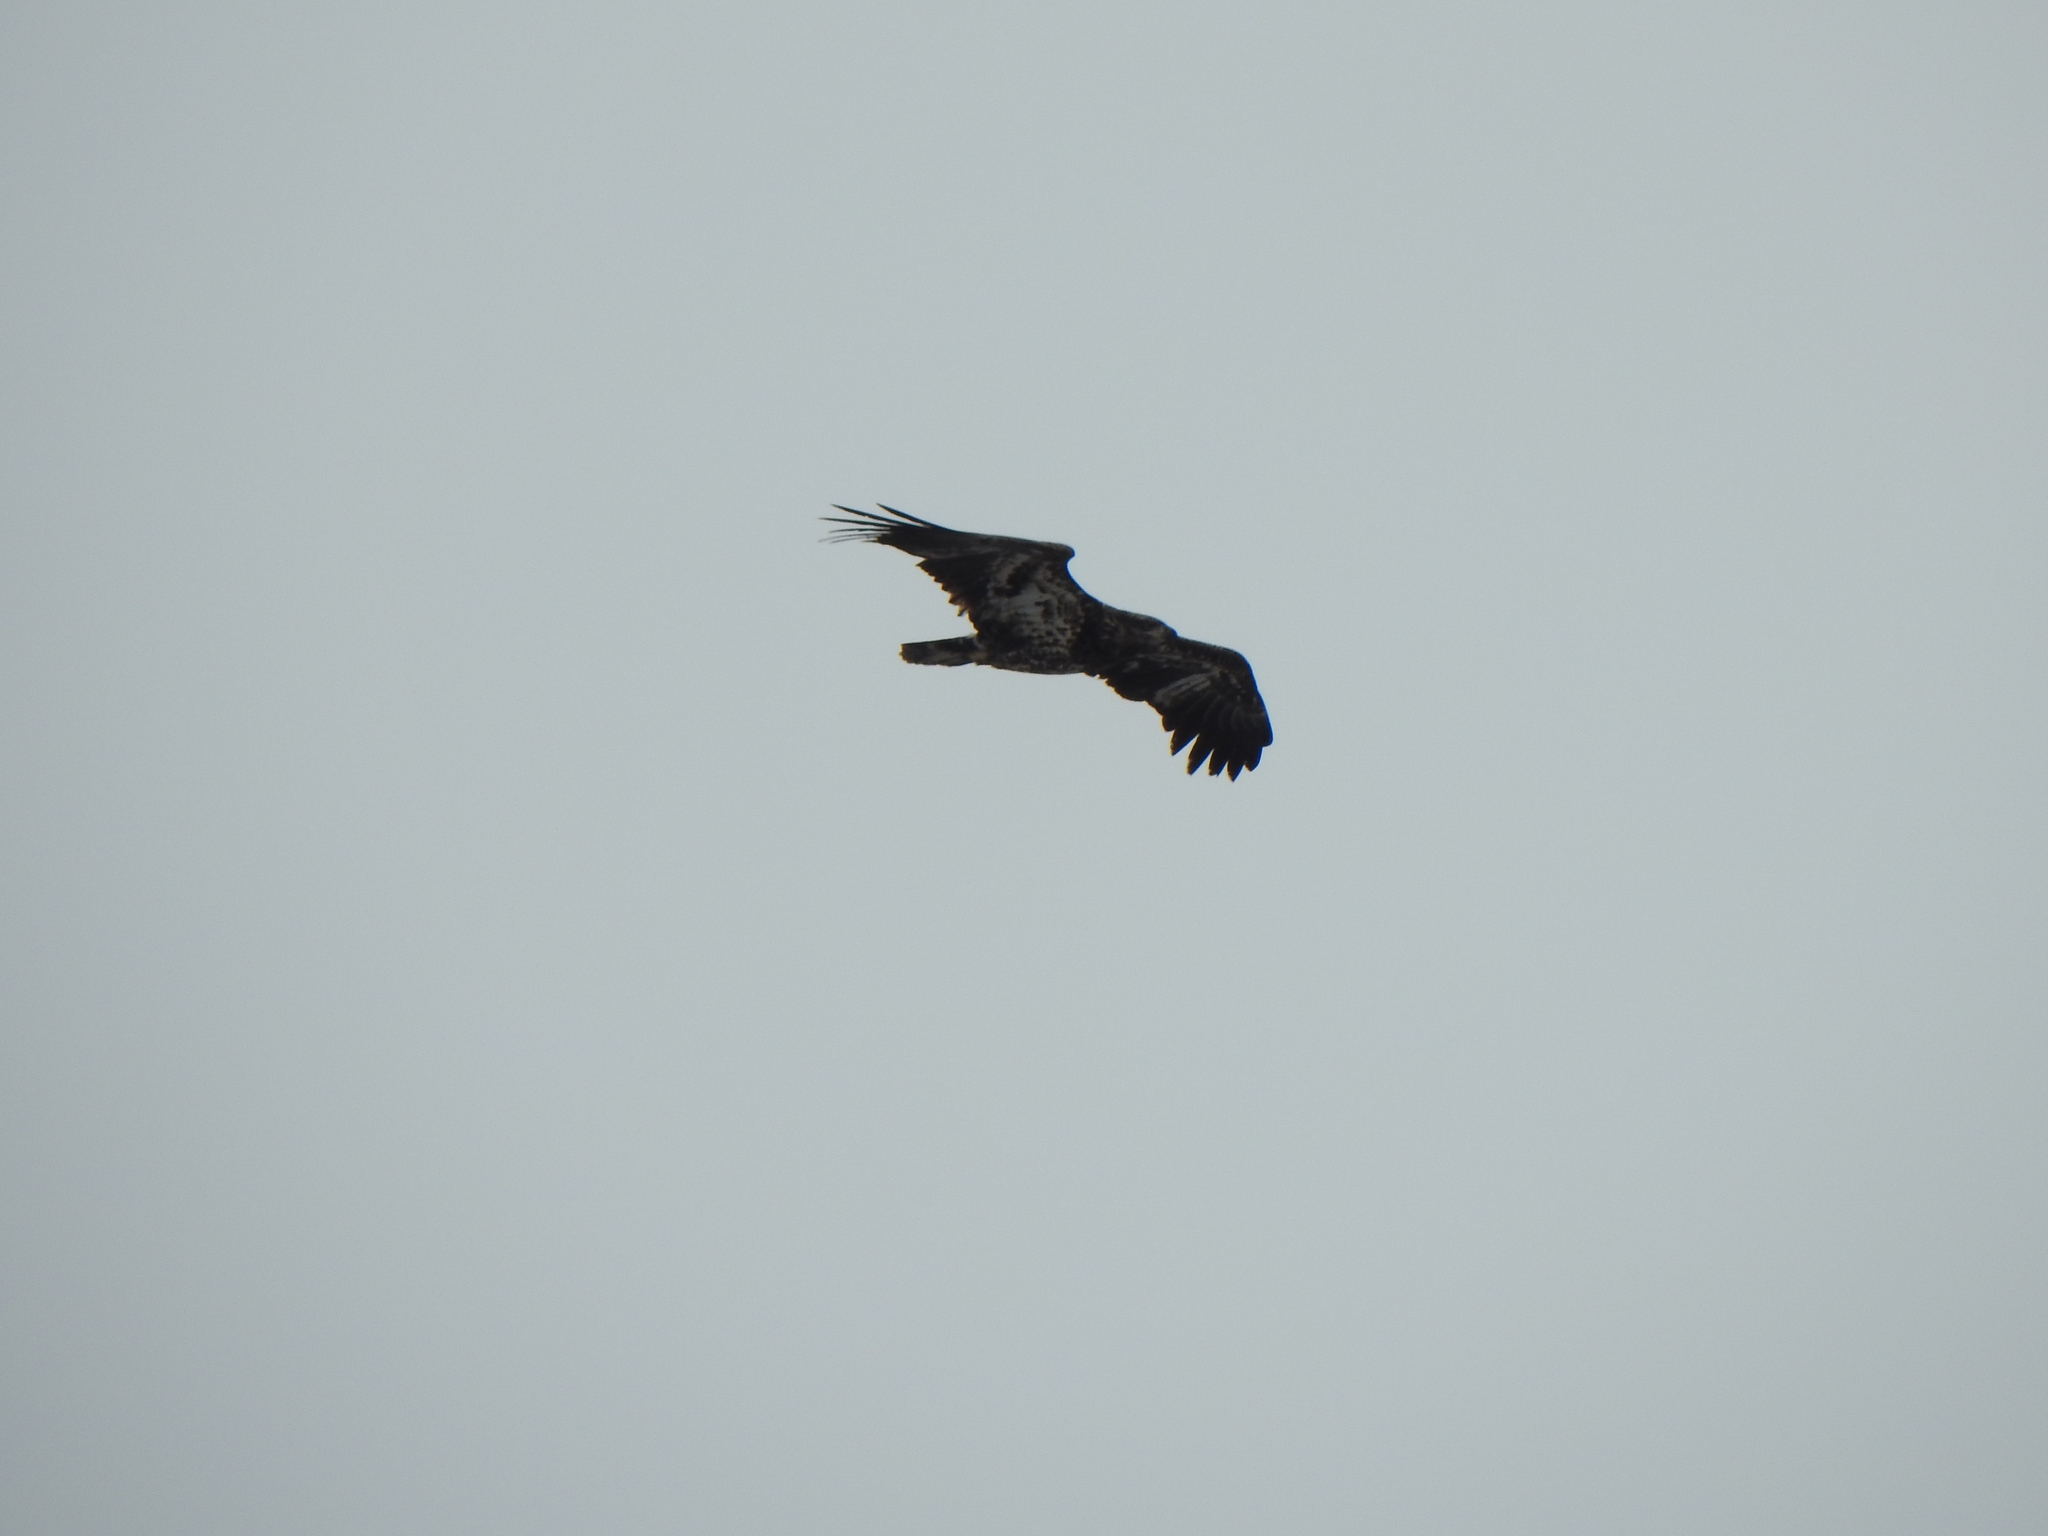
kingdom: Animalia
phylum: Chordata
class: Aves
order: Accipitriformes
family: Accipitridae
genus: Haliaeetus
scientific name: Haliaeetus leucocephalus
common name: Bald eagle
